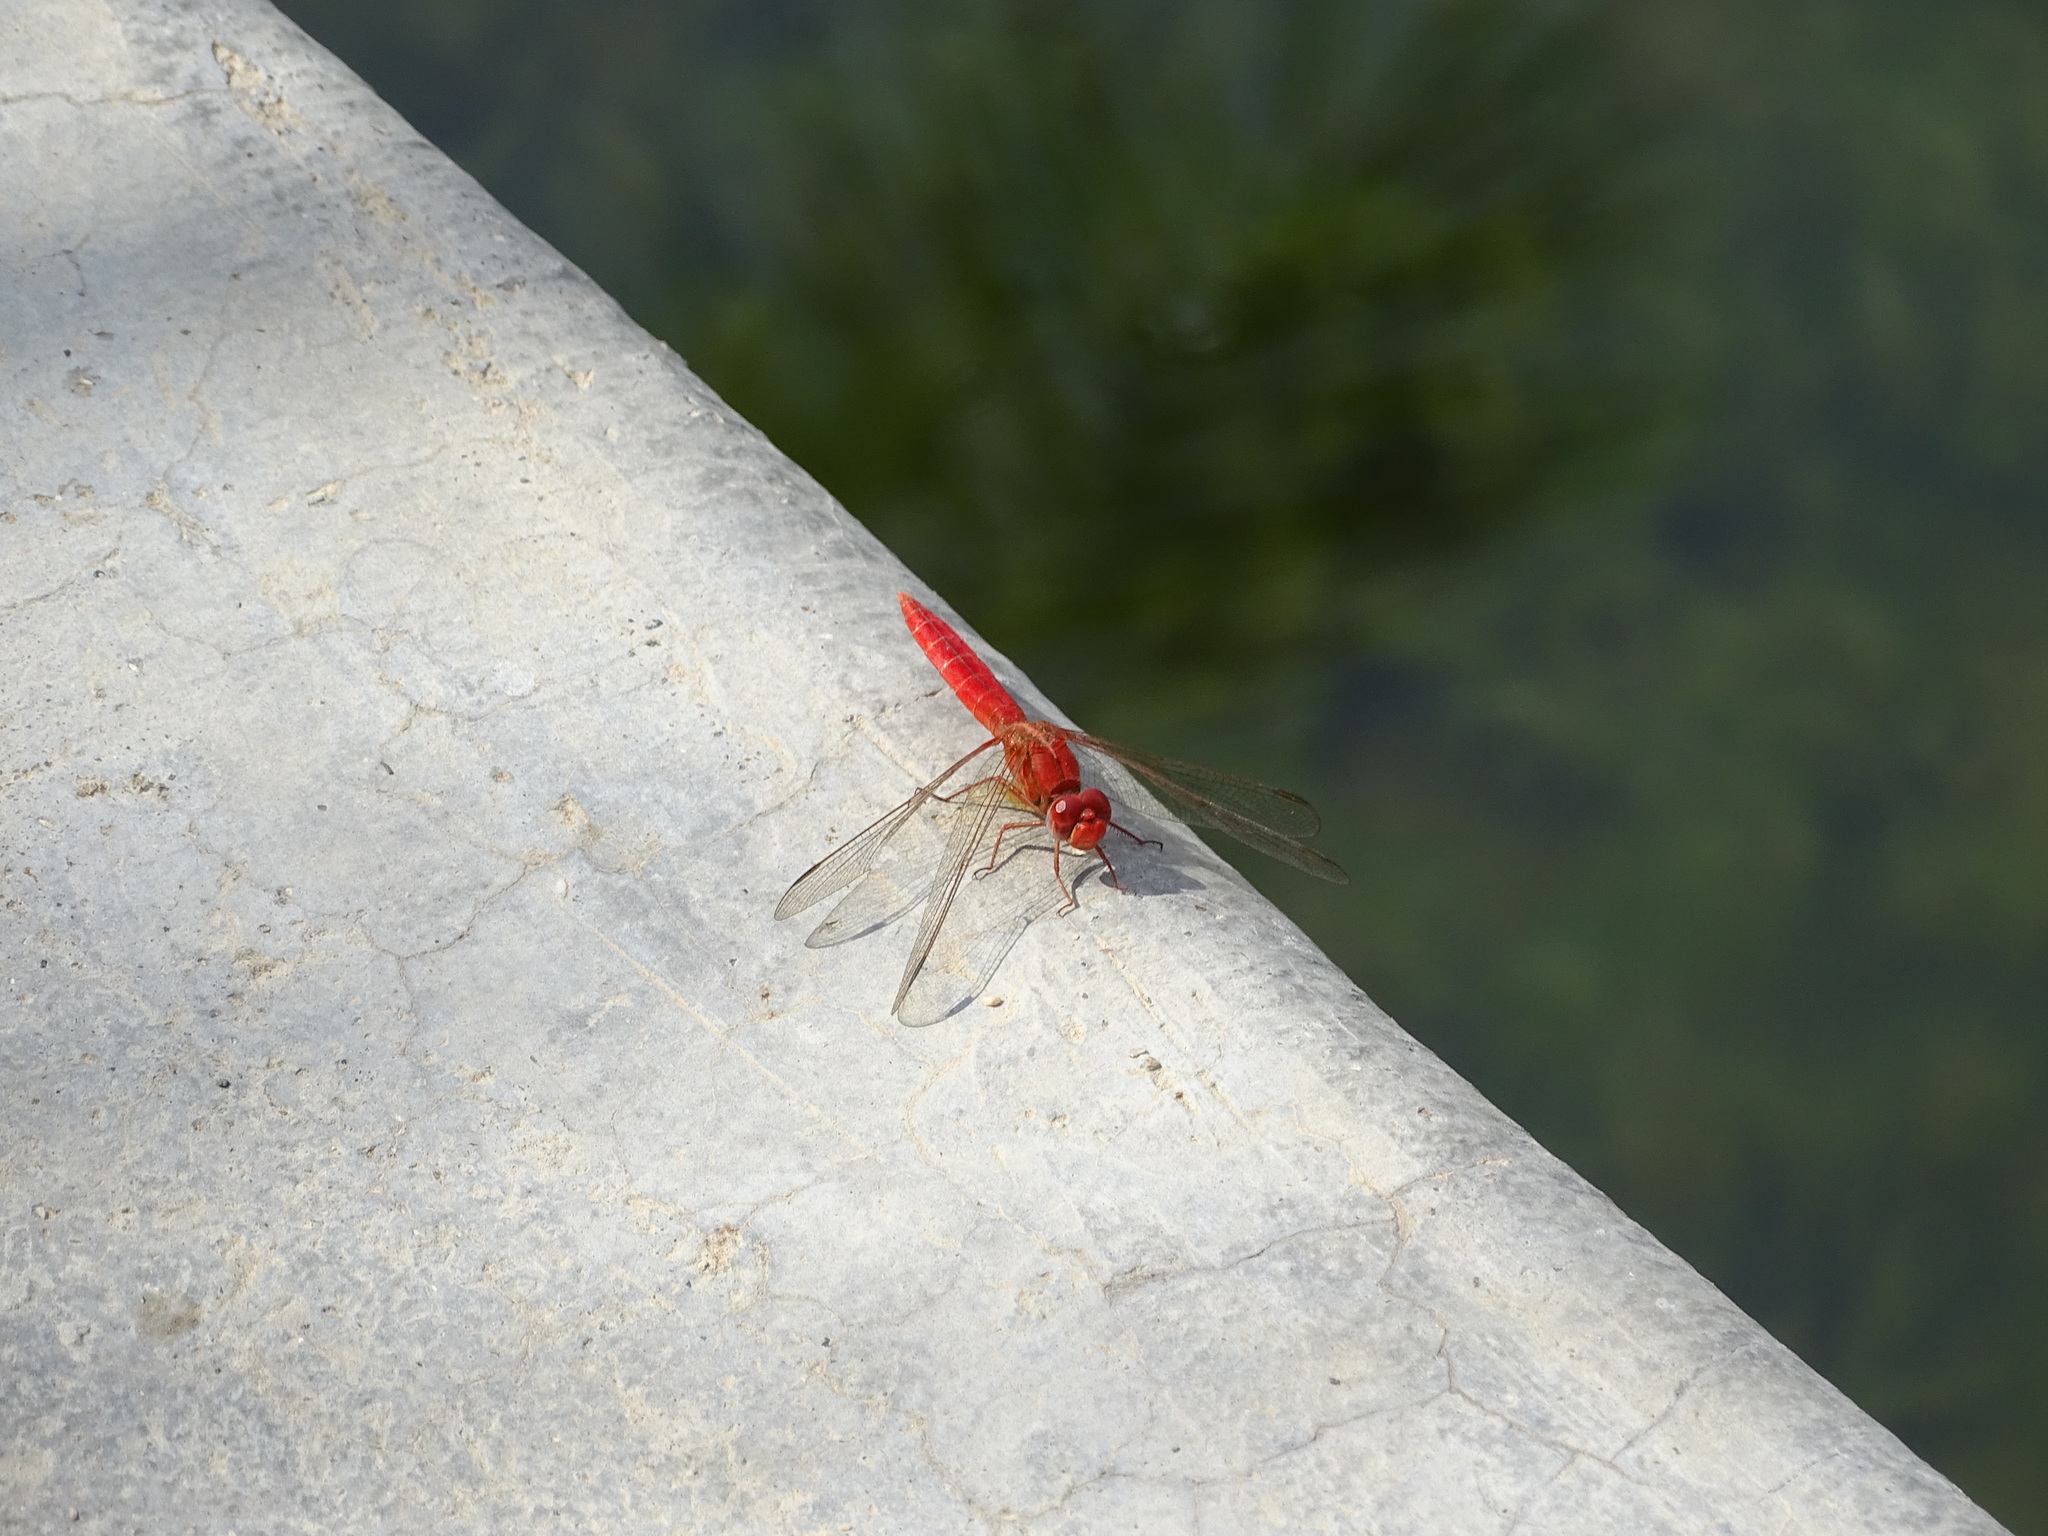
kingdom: Animalia
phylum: Arthropoda
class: Insecta
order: Odonata
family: Libellulidae
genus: Crocothemis
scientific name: Crocothemis erythraea
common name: Scarlet dragonfly
